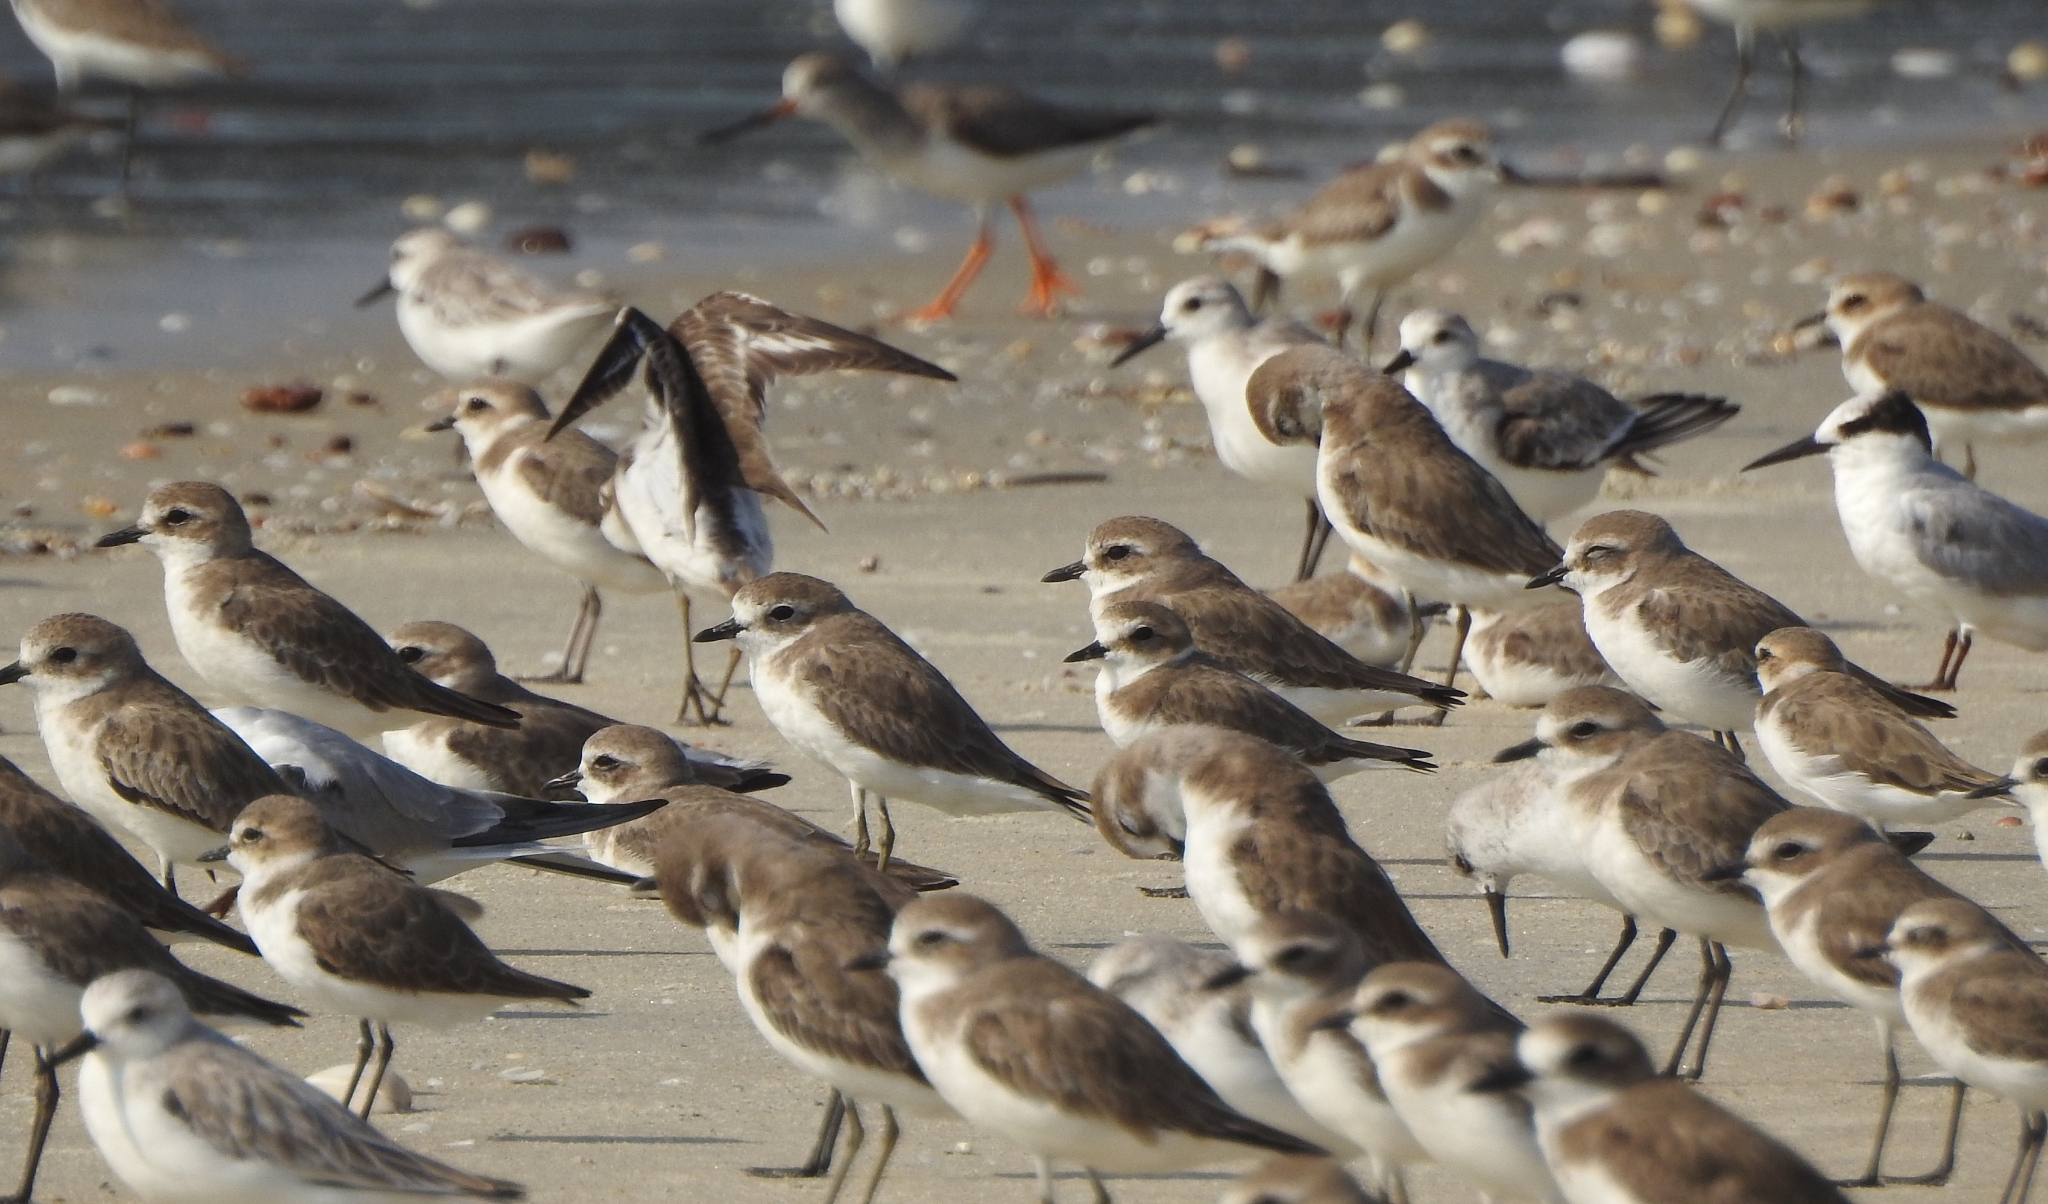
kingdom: Animalia
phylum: Chordata
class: Aves
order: Charadriiformes
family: Charadriidae
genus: Anarhynchus
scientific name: Anarhynchus
